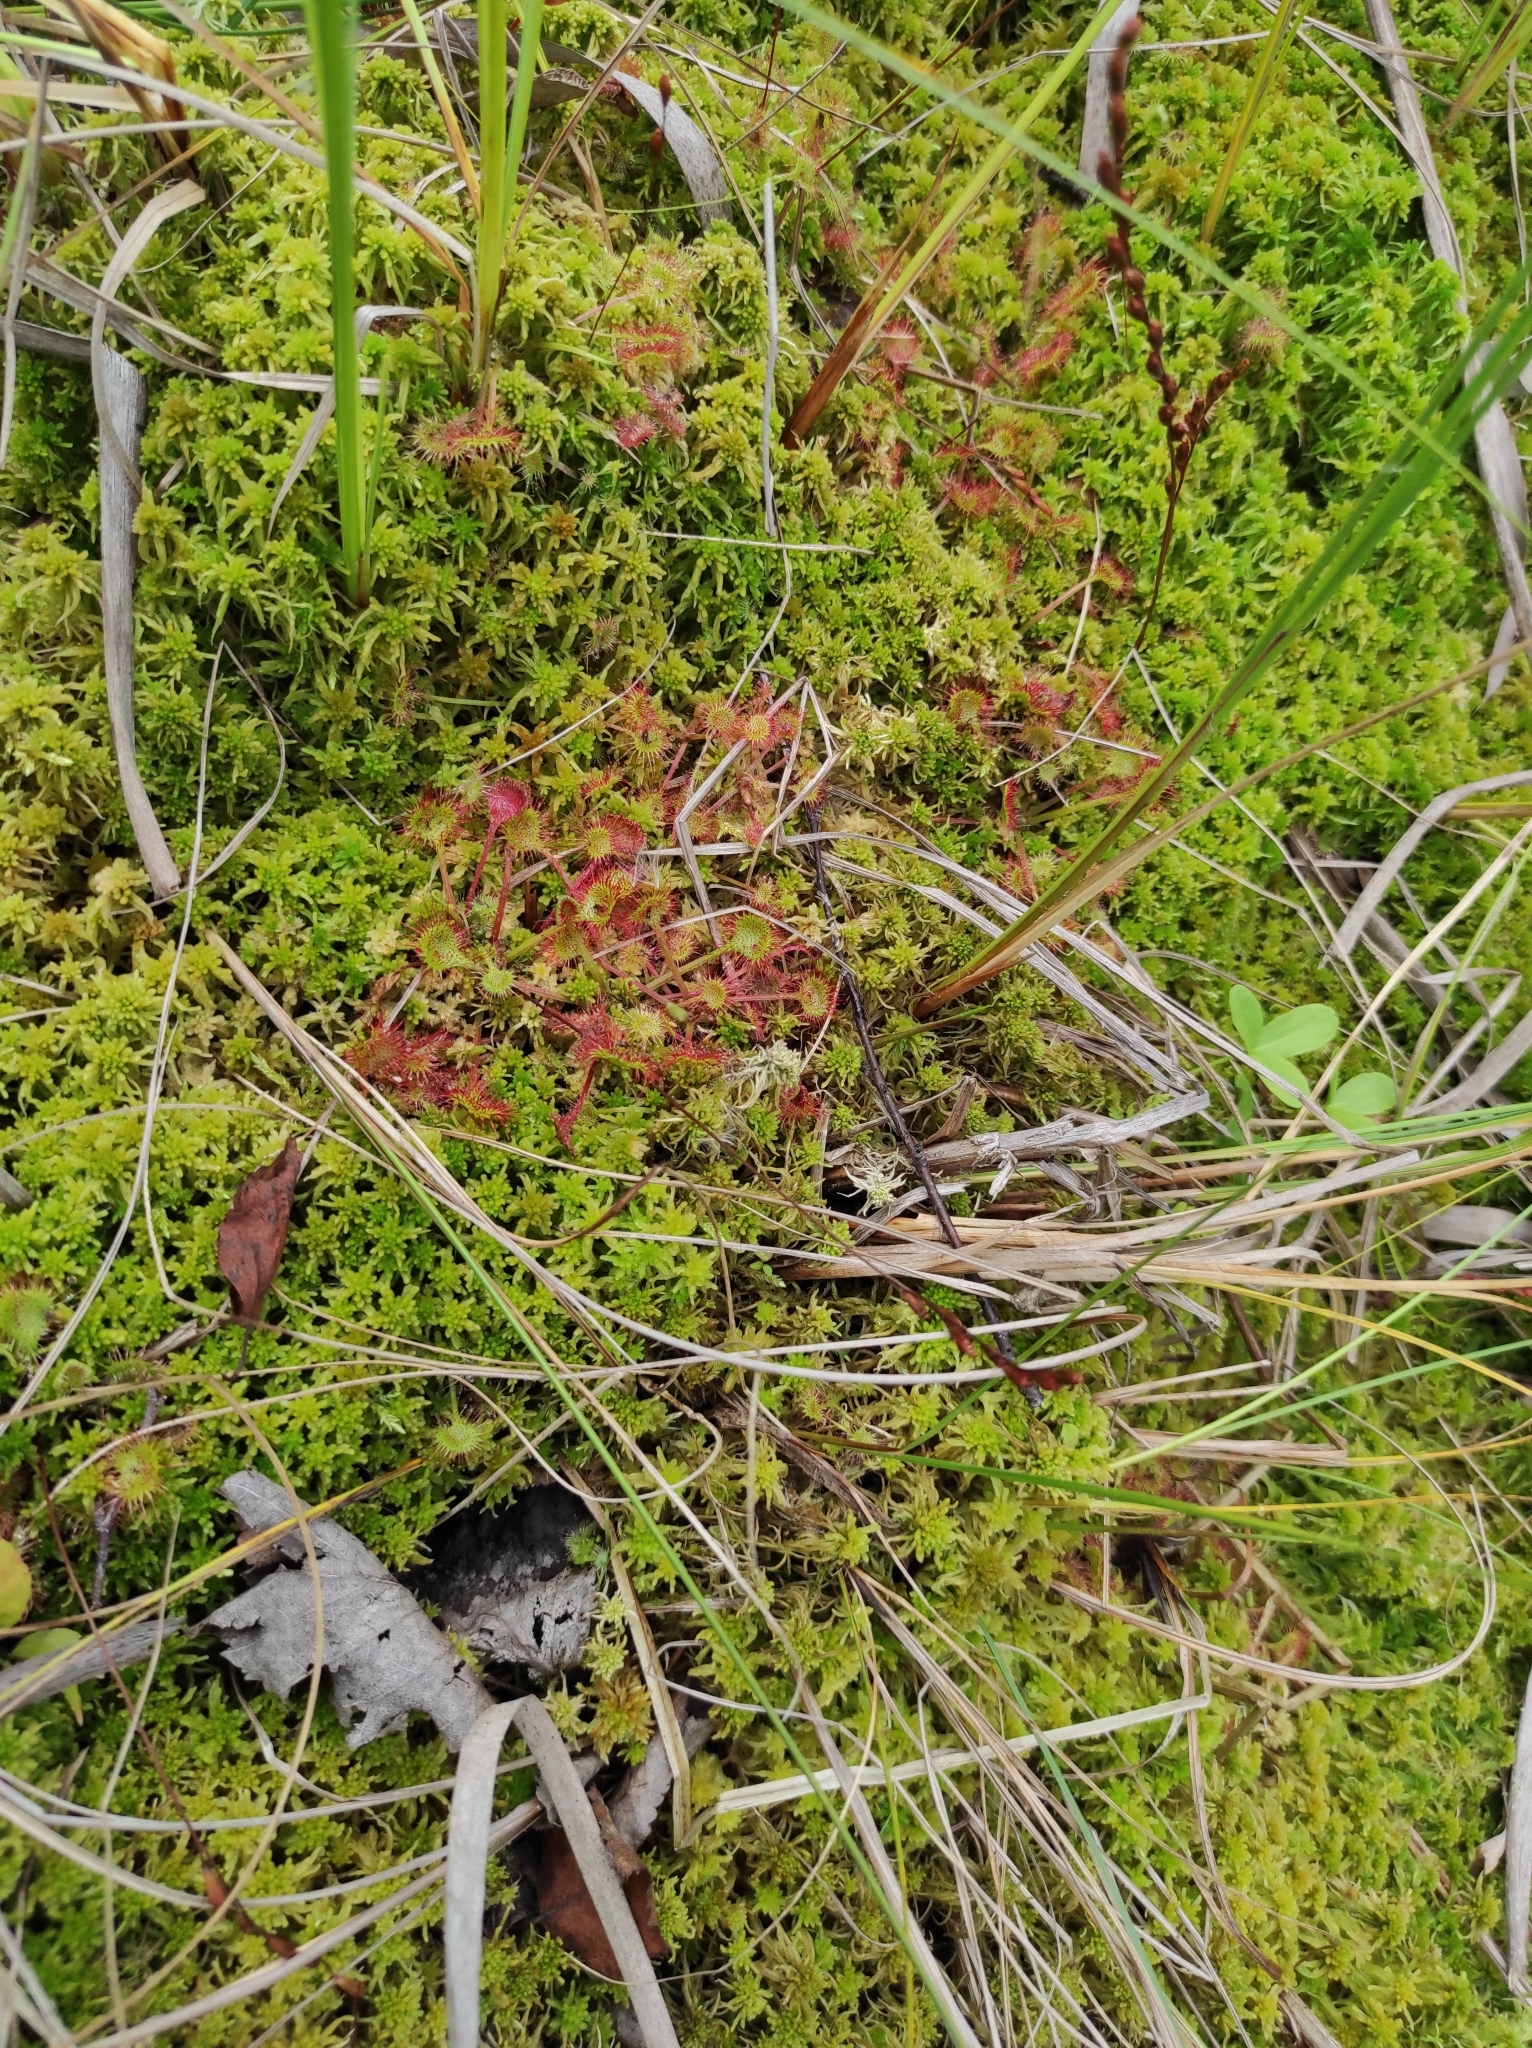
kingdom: Plantae
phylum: Tracheophyta
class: Magnoliopsida
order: Caryophyllales
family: Droseraceae
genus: Drosera
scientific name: Drosera rotundifolia
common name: Round-leaved sundew
